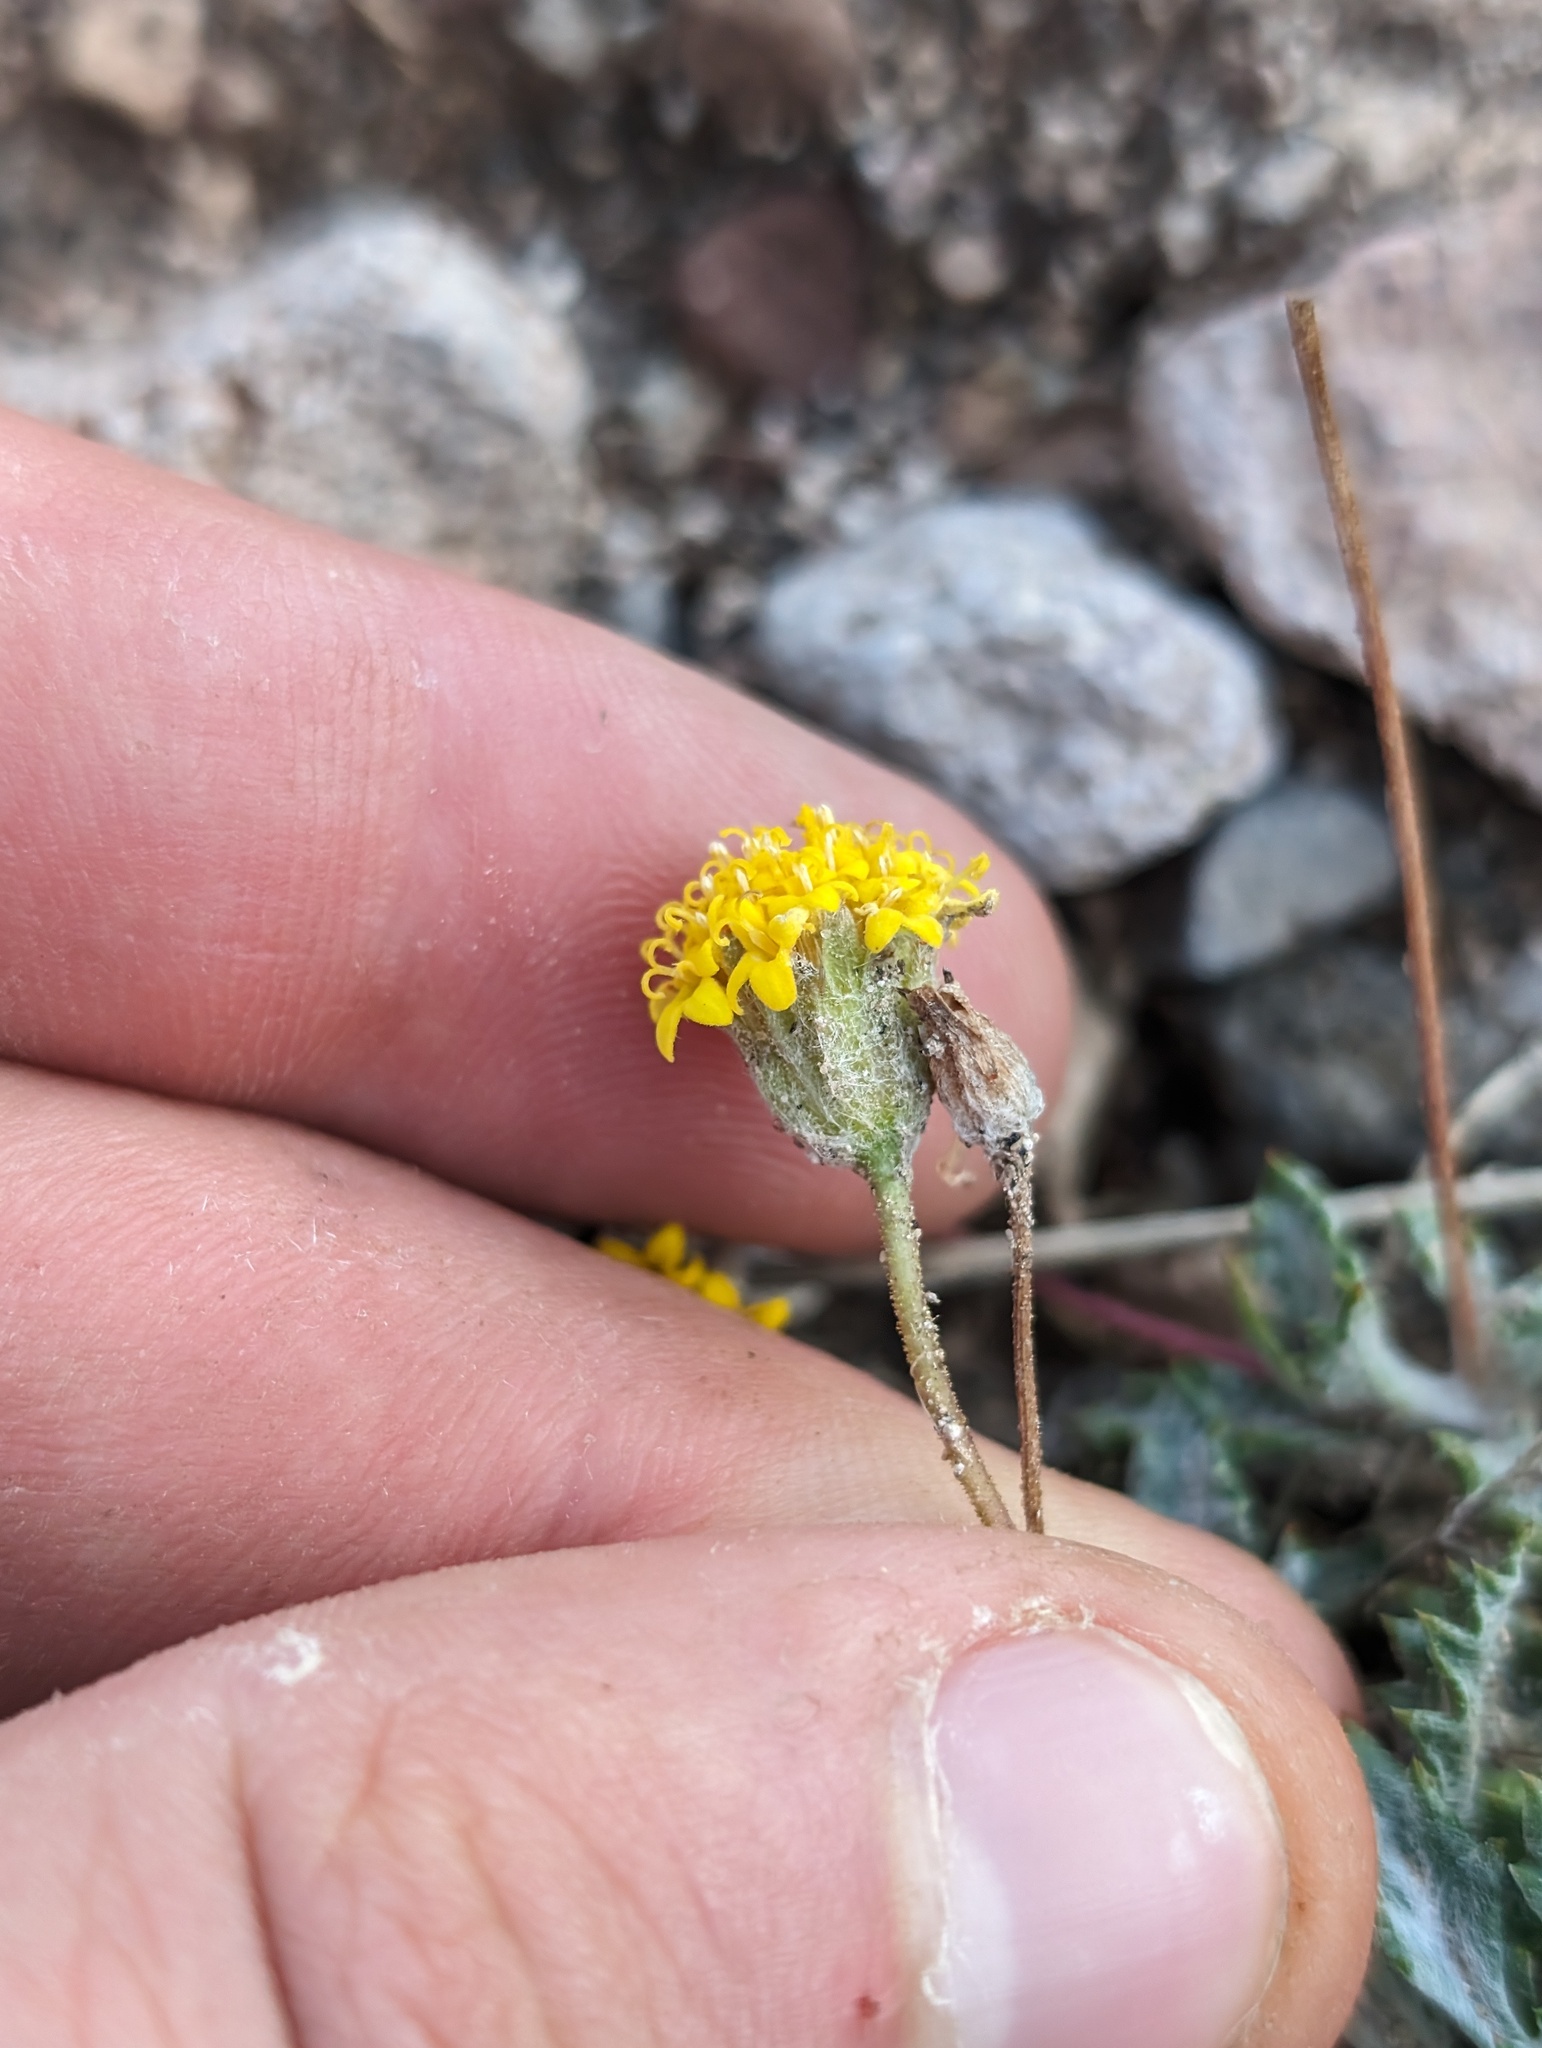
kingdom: Plantae
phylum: Tracheophyta
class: Magnoliopsida
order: Asterales
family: Asteraceae
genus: Trichoptilium
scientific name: Trichoptilium incisum
